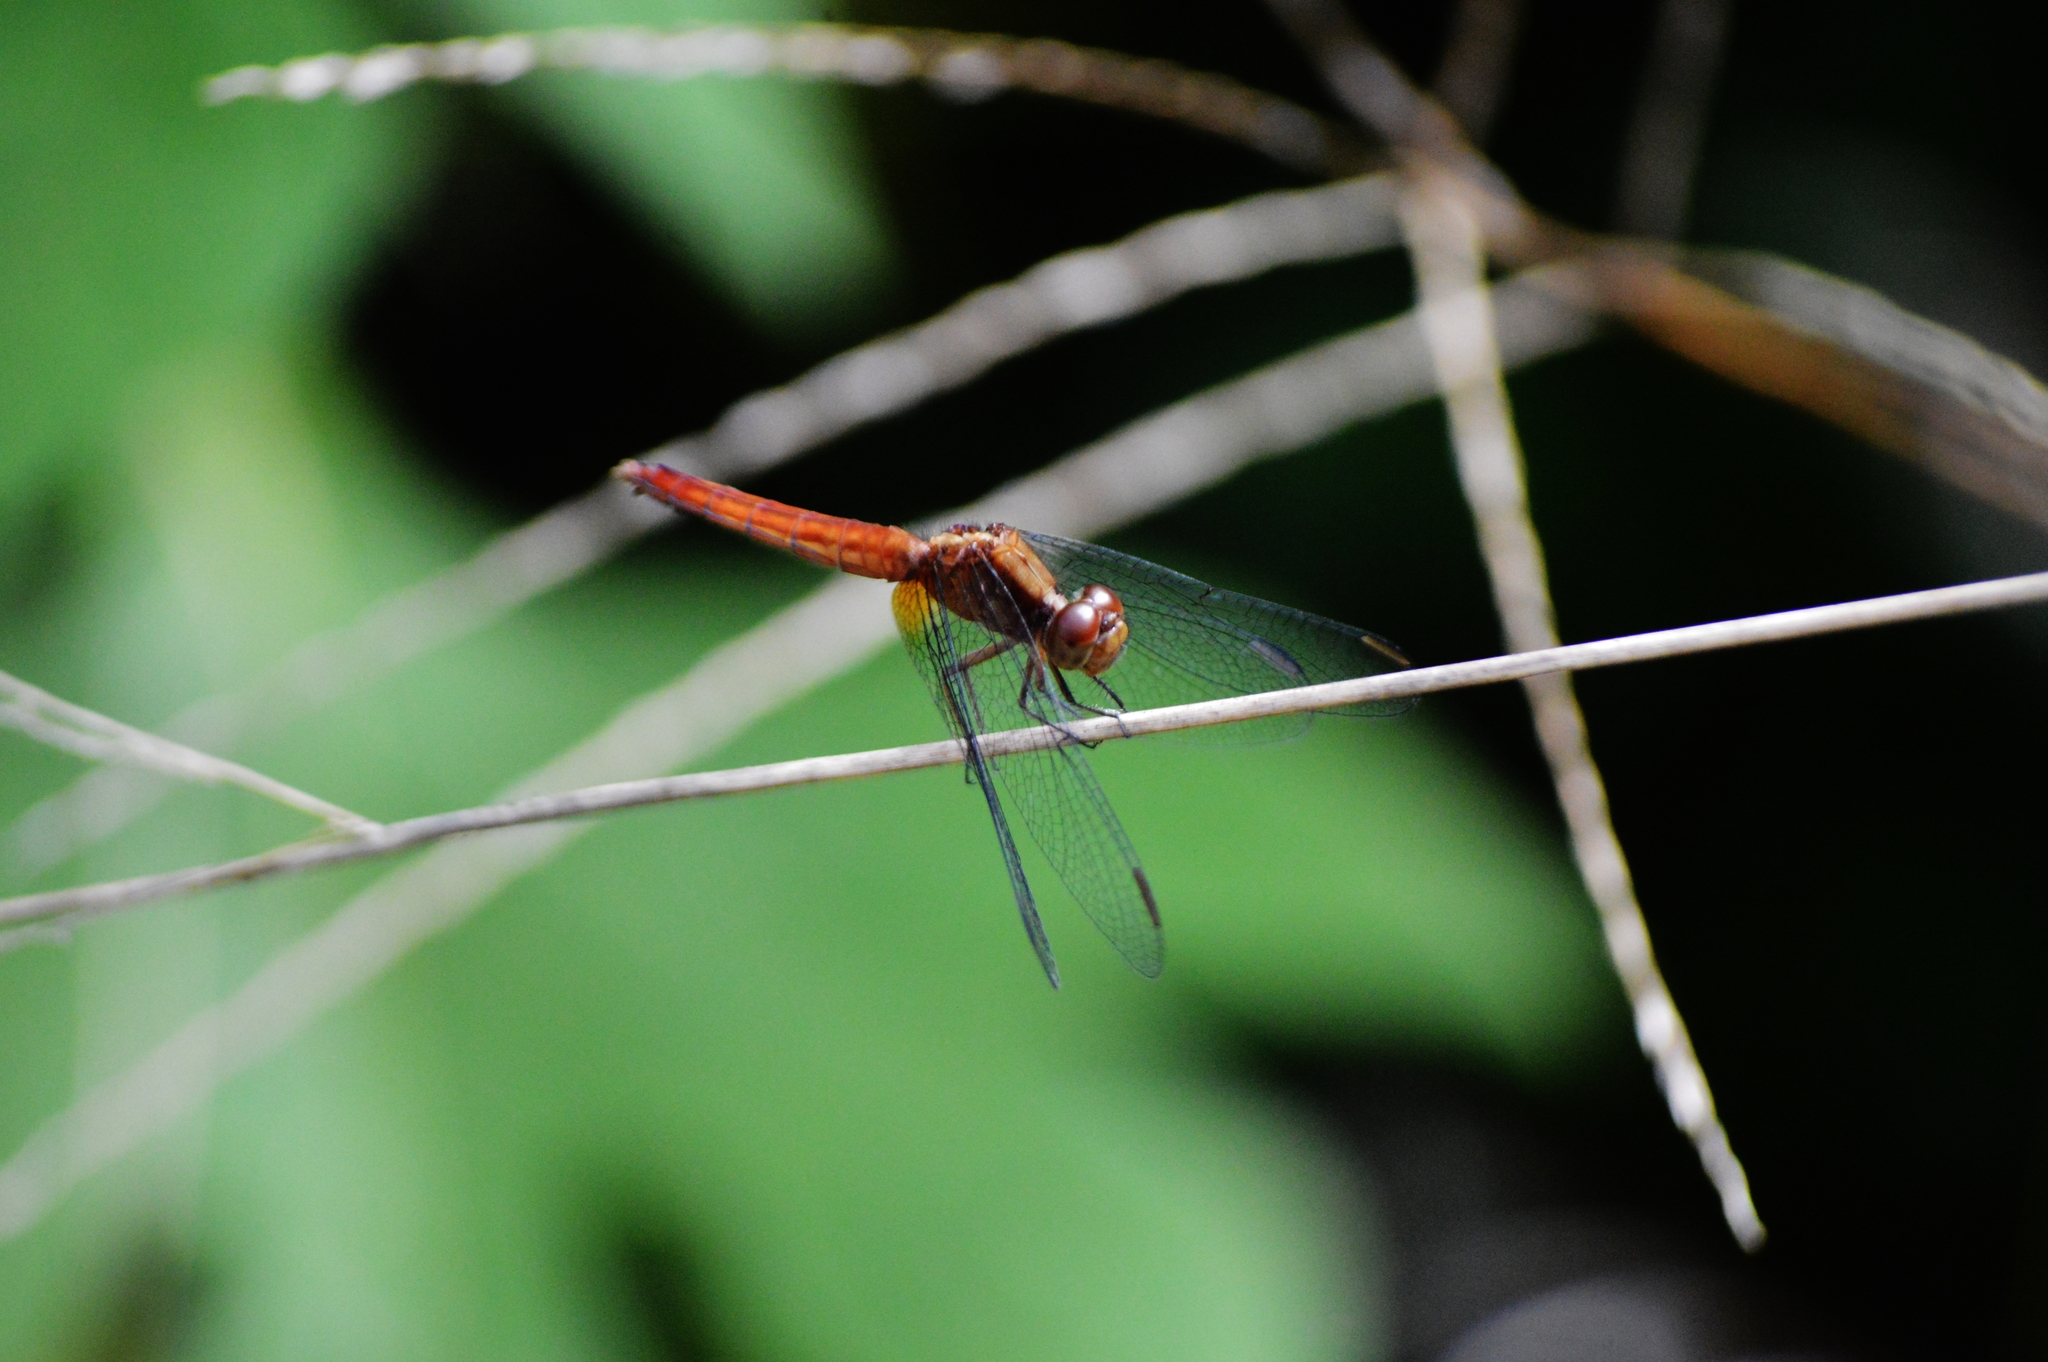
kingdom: Animalia
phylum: Arthropoda
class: Insecta
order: Odonata
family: Libellulidae
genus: Erythrodiplax
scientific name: Erythrodiplax fusca
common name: Red-faced dragonlet
